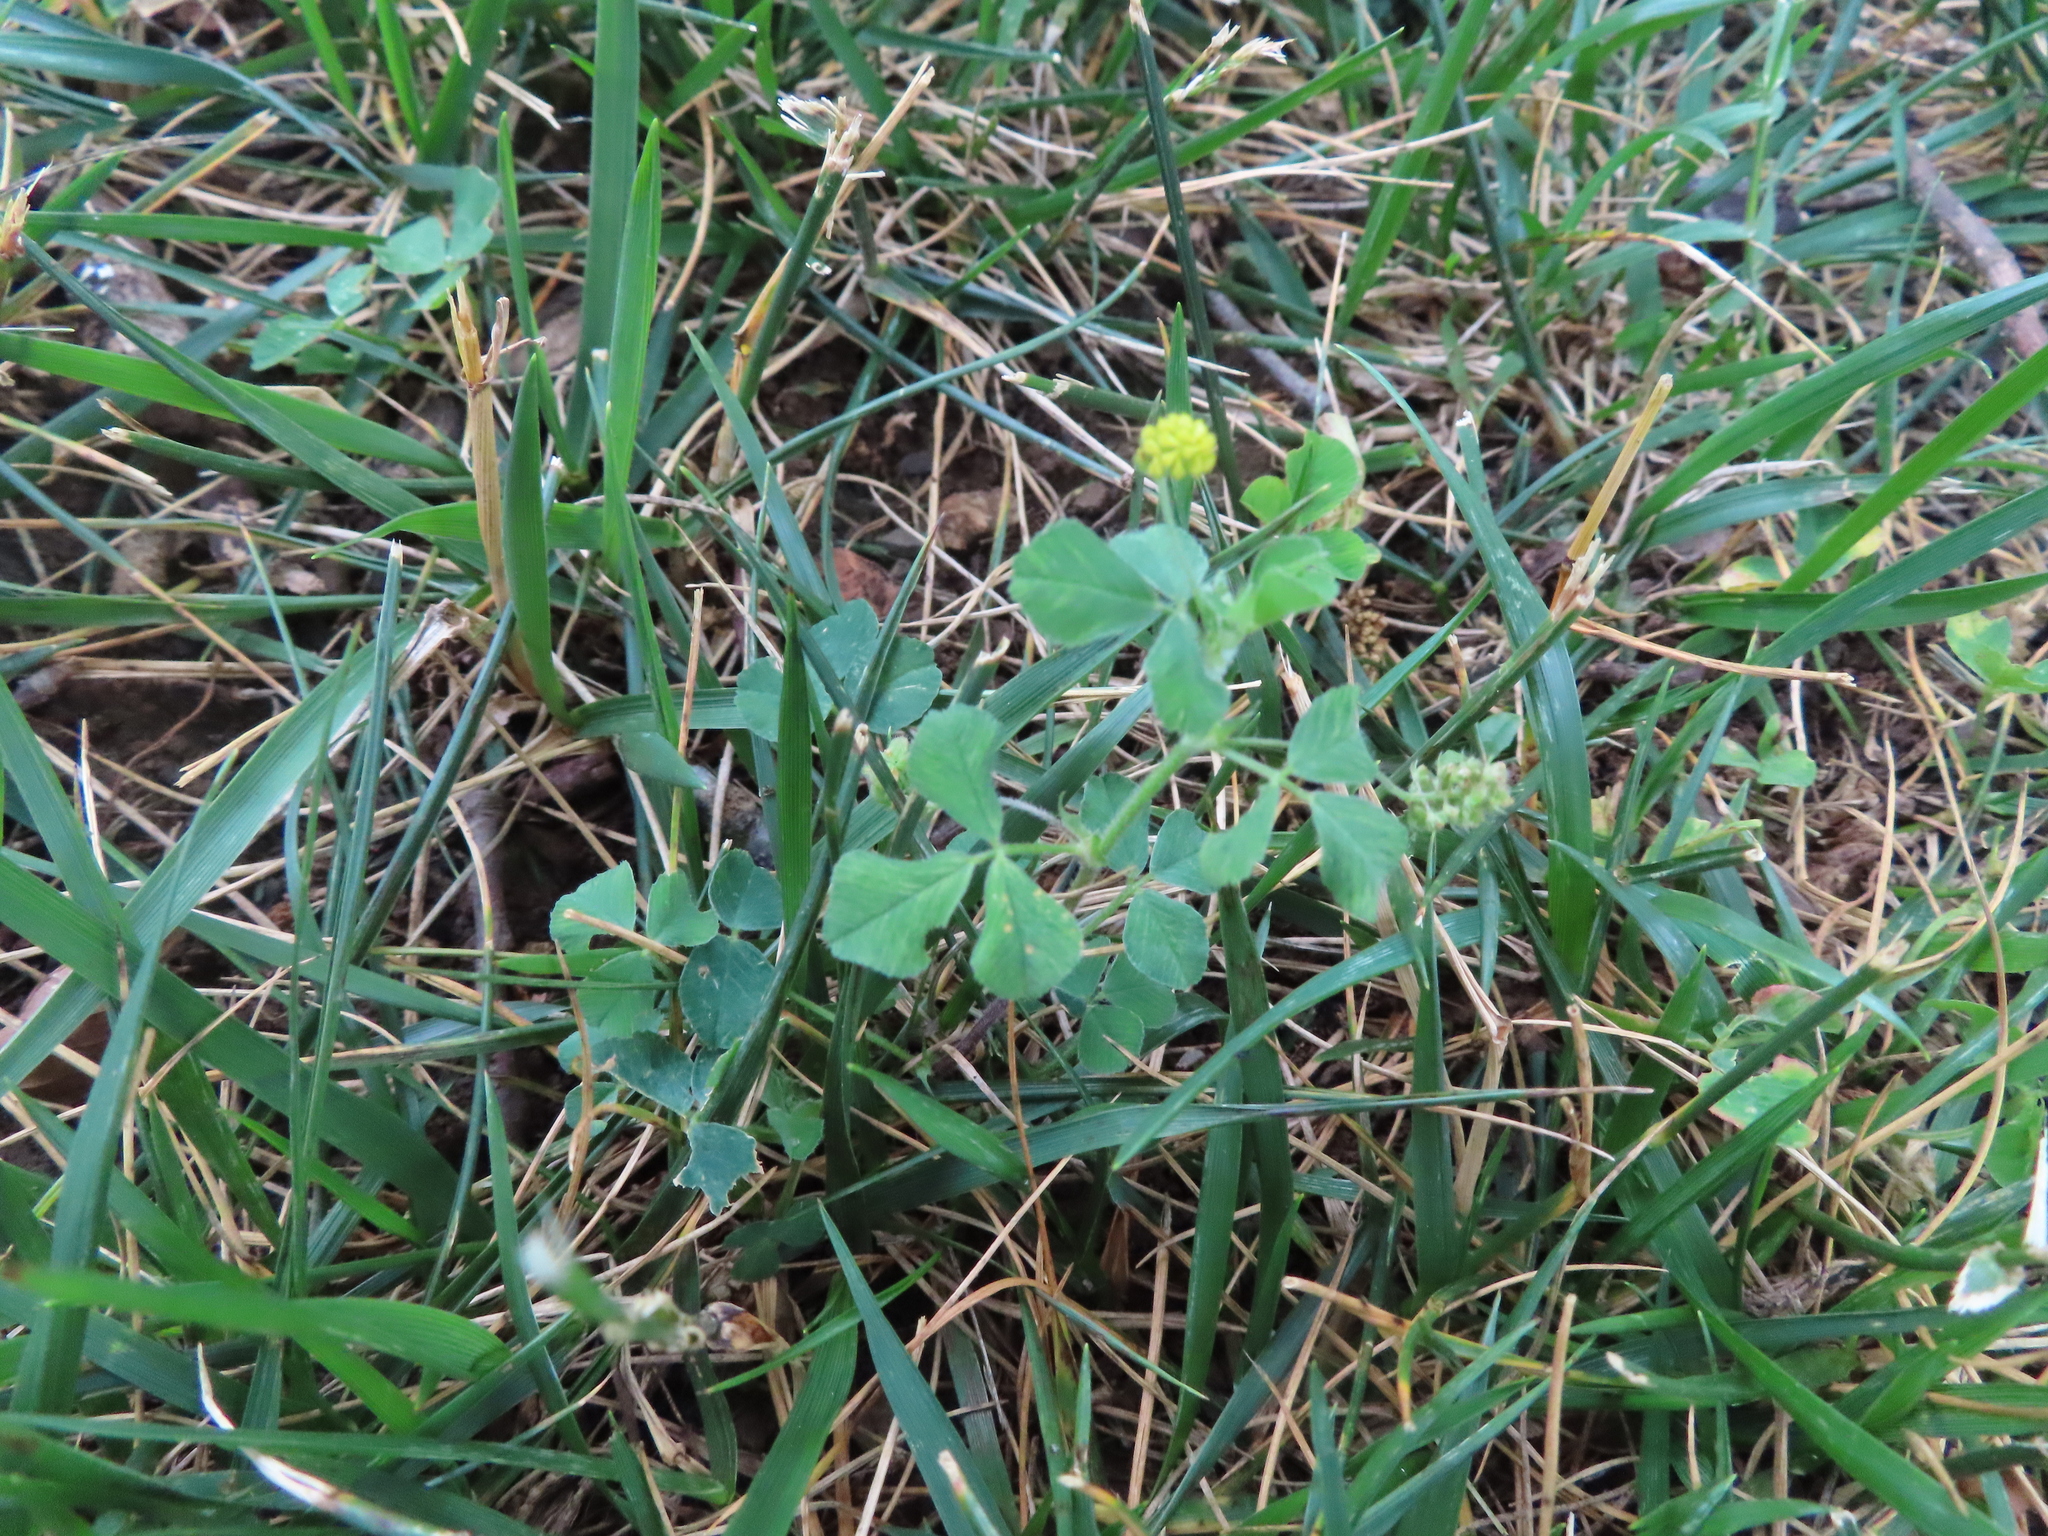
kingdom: Plantae
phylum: Tracheophyta
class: Magnoliopsida
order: Fabales
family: Fabaceae
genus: Medicago
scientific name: Medicago lupulina
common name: Black medick
